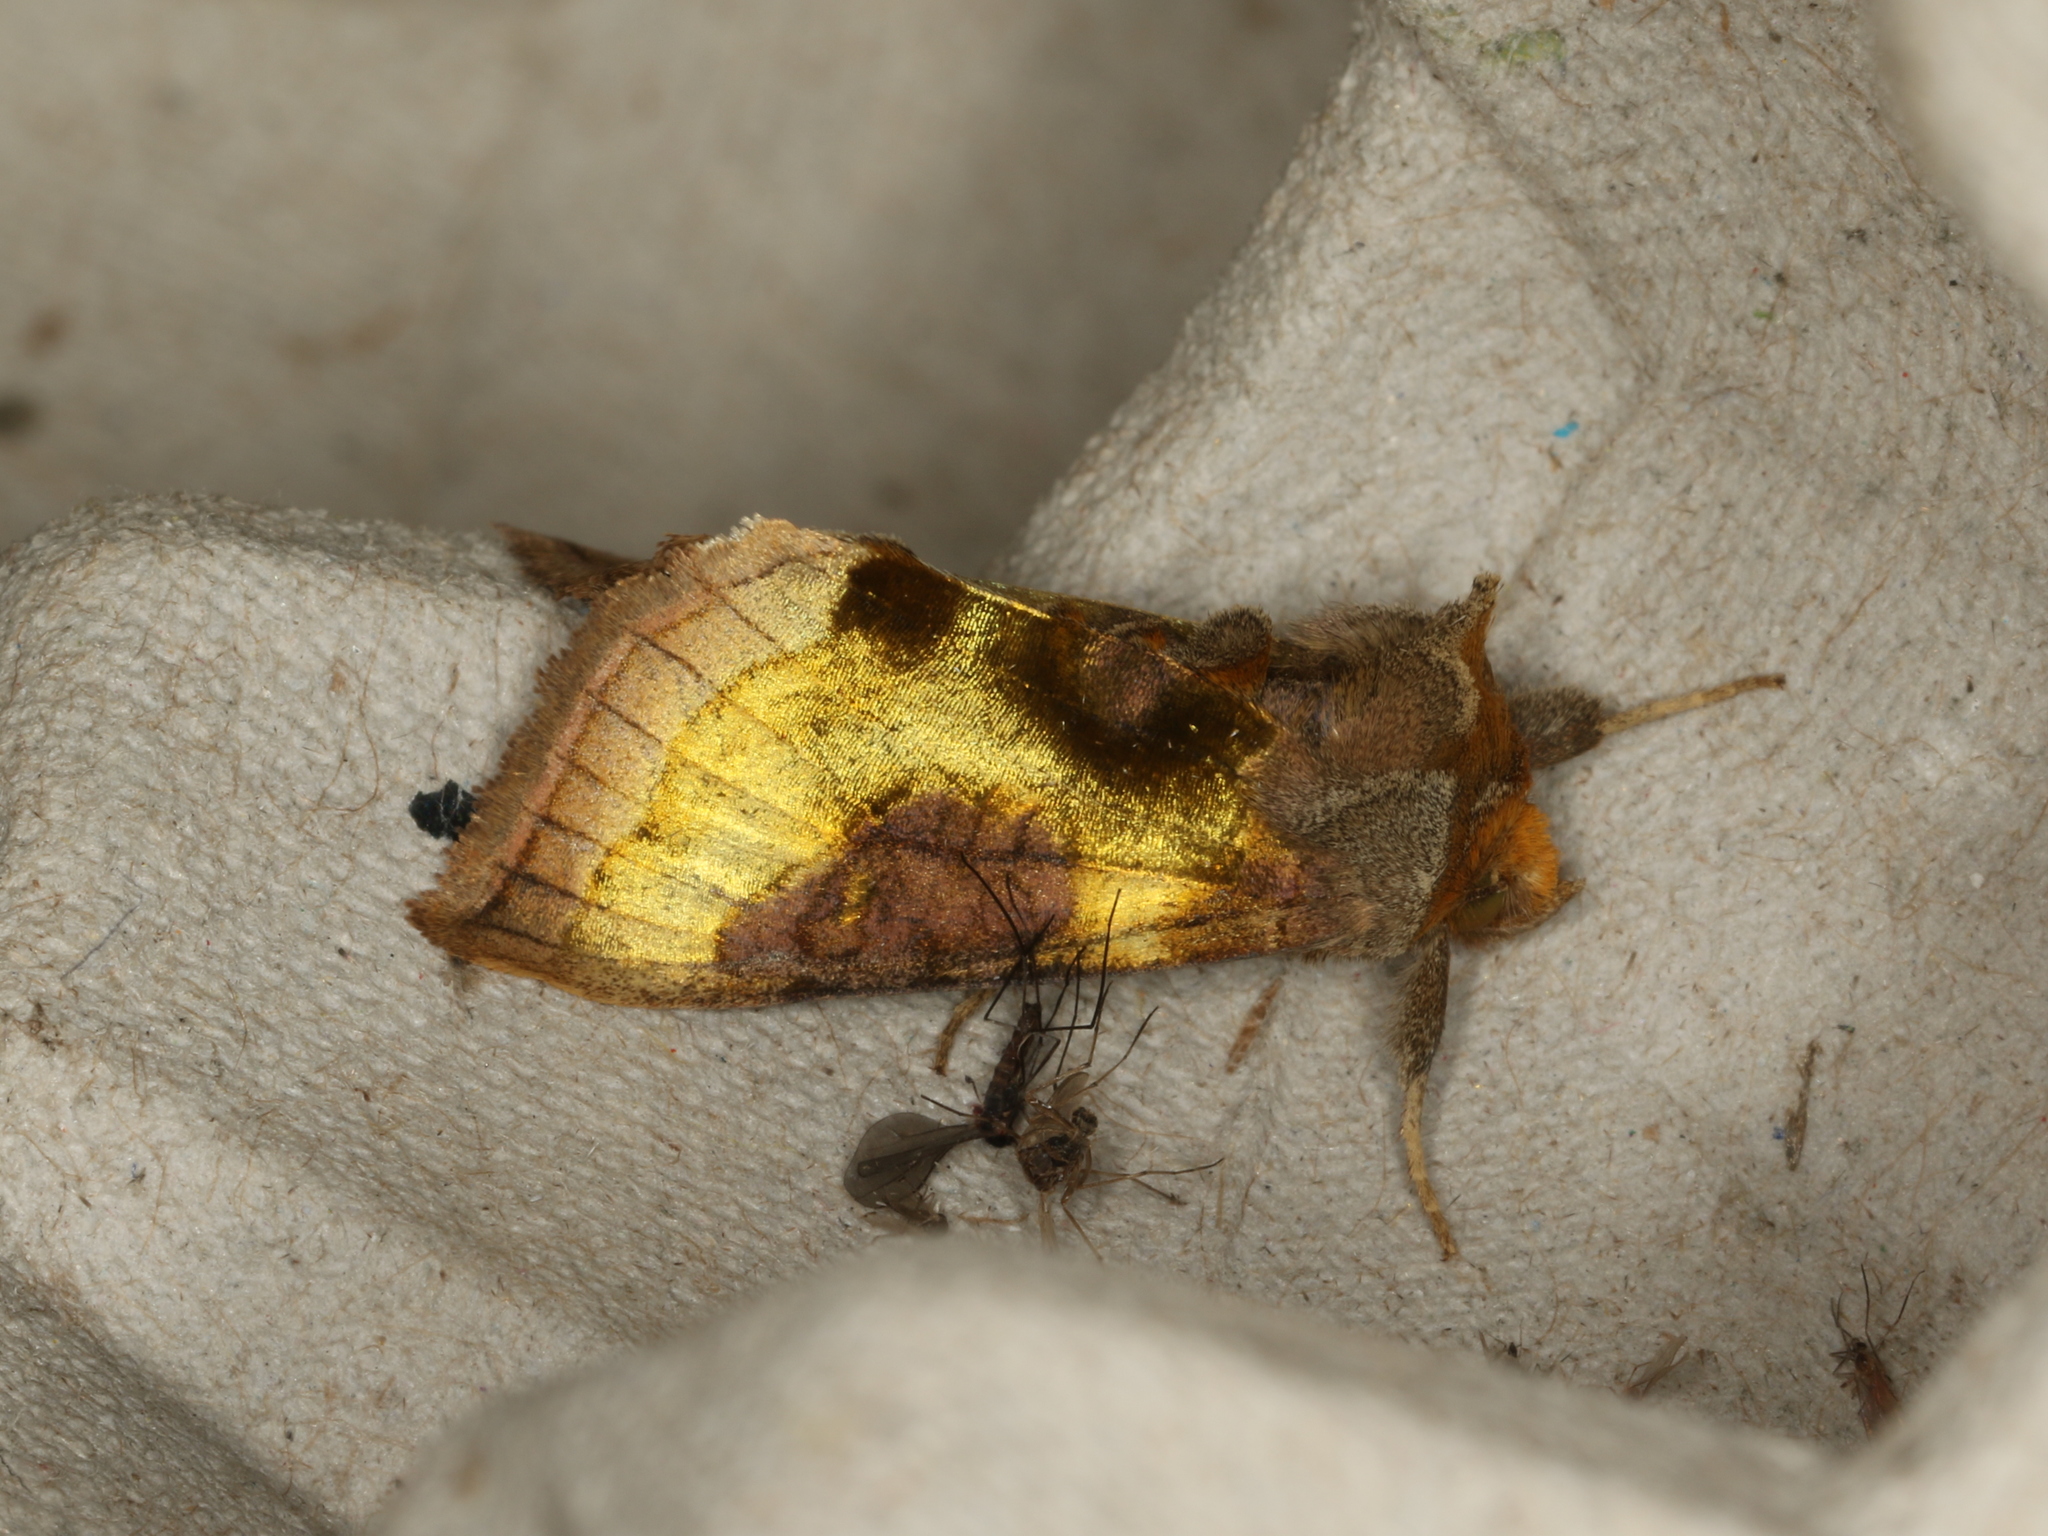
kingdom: Animalia
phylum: Arthropoda
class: Insecta
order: Lepidoptera
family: Noctuidae
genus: Diachrysia
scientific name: Diachrysia chrysitis
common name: Burnished brass
